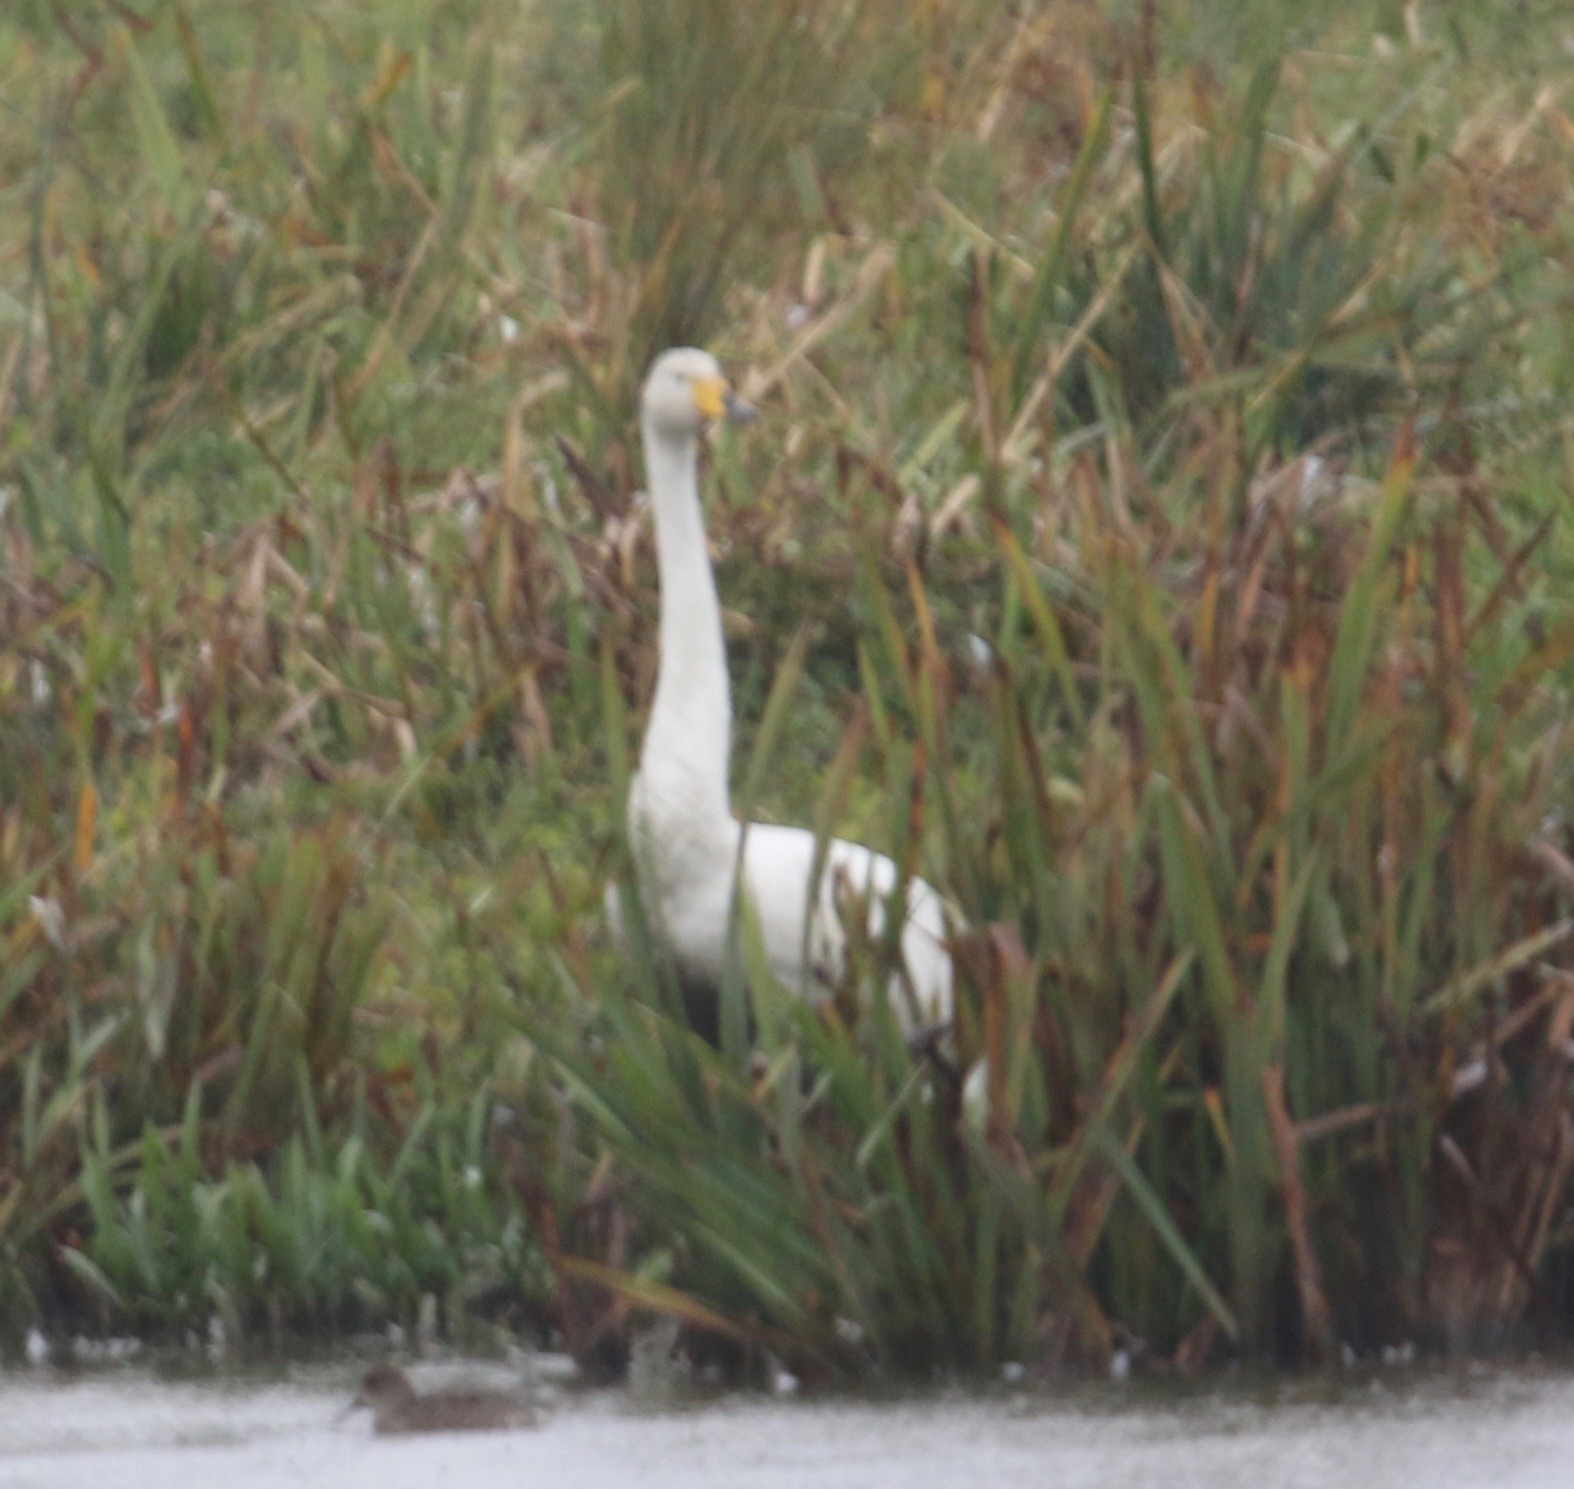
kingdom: Animalia
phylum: Chordata
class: Aves
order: Anseriformes
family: Anatidae
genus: Cygnus
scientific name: Cygnus cygnus
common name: Whooper swan
